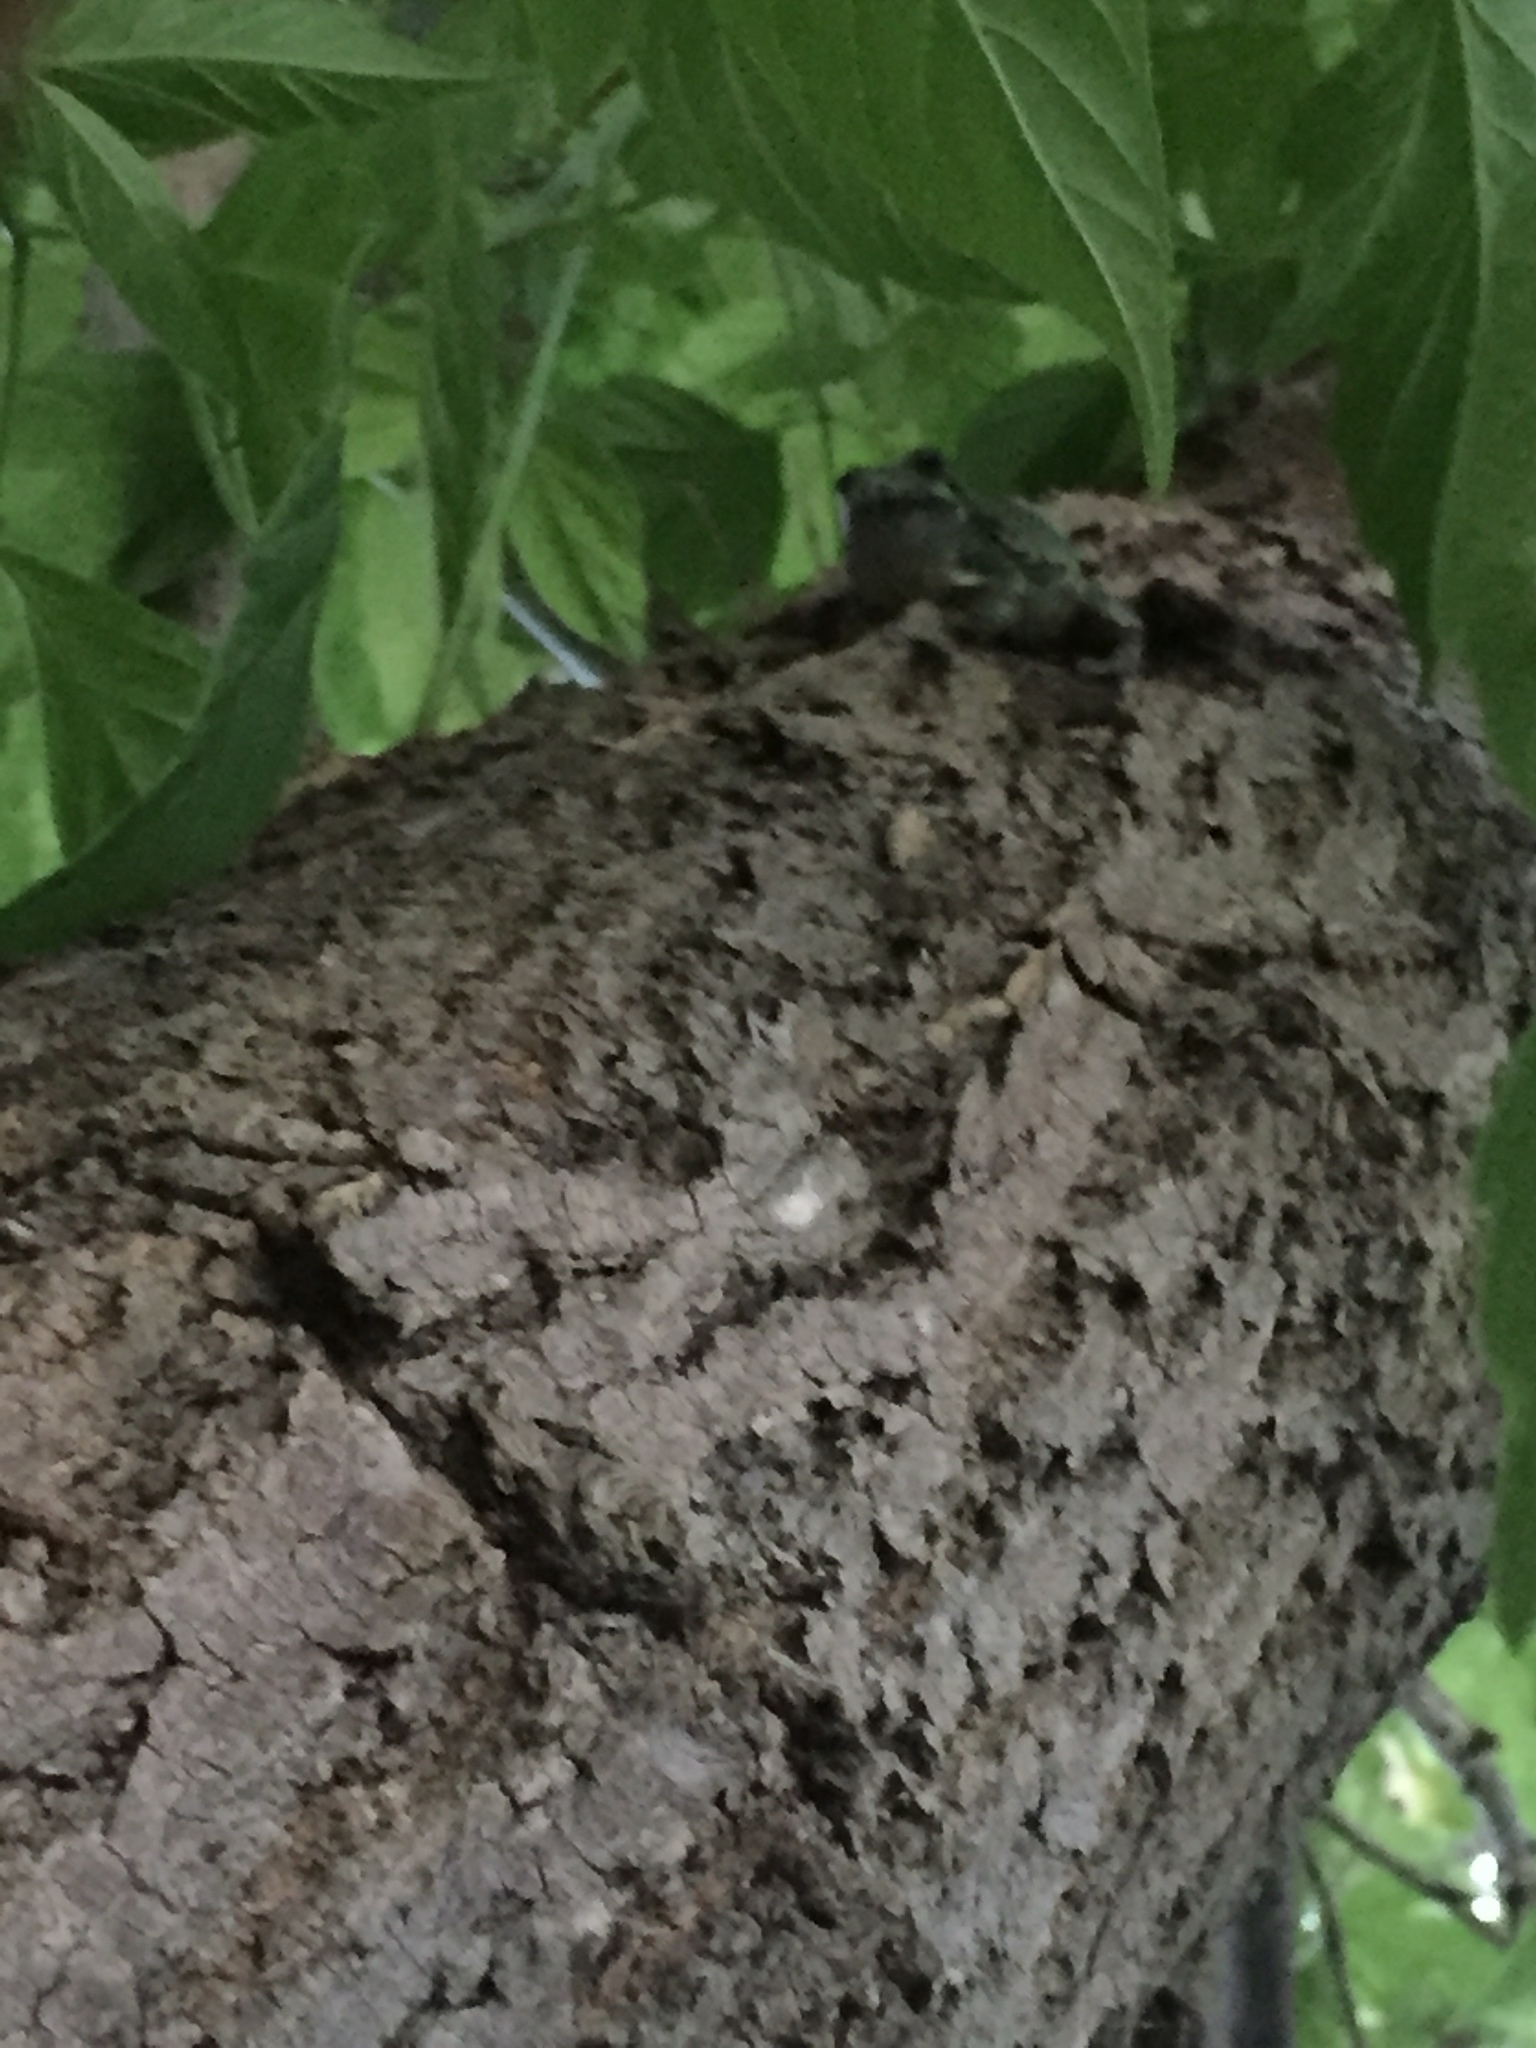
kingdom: Animalia
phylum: Chordata
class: Amphibia
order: Anura
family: Hylidae
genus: Dryophytes
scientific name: Dryophytes versicolor
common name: Gray treefrog
